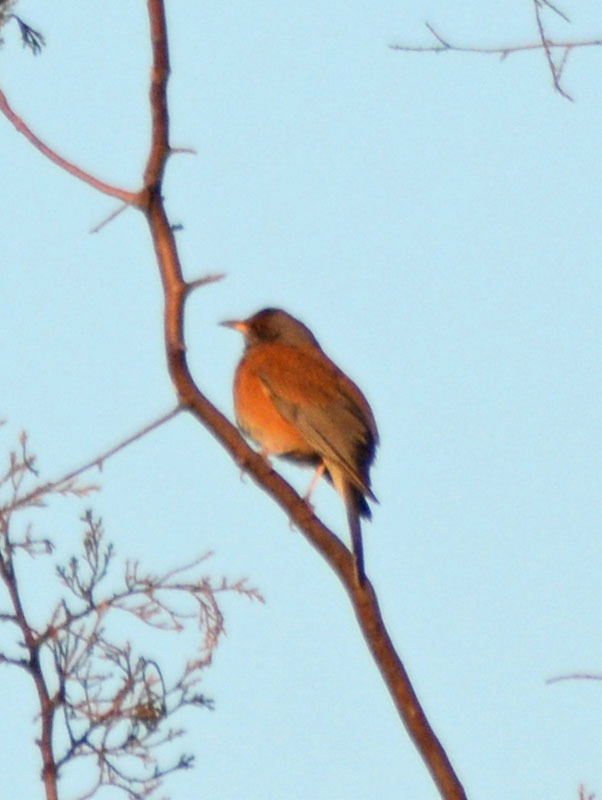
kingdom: Animalia
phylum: Chordata
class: Aves
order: Passeriformes
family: Turdidae
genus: Turdus
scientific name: Turdus rufopalliatus
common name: Rufous-backed robin
